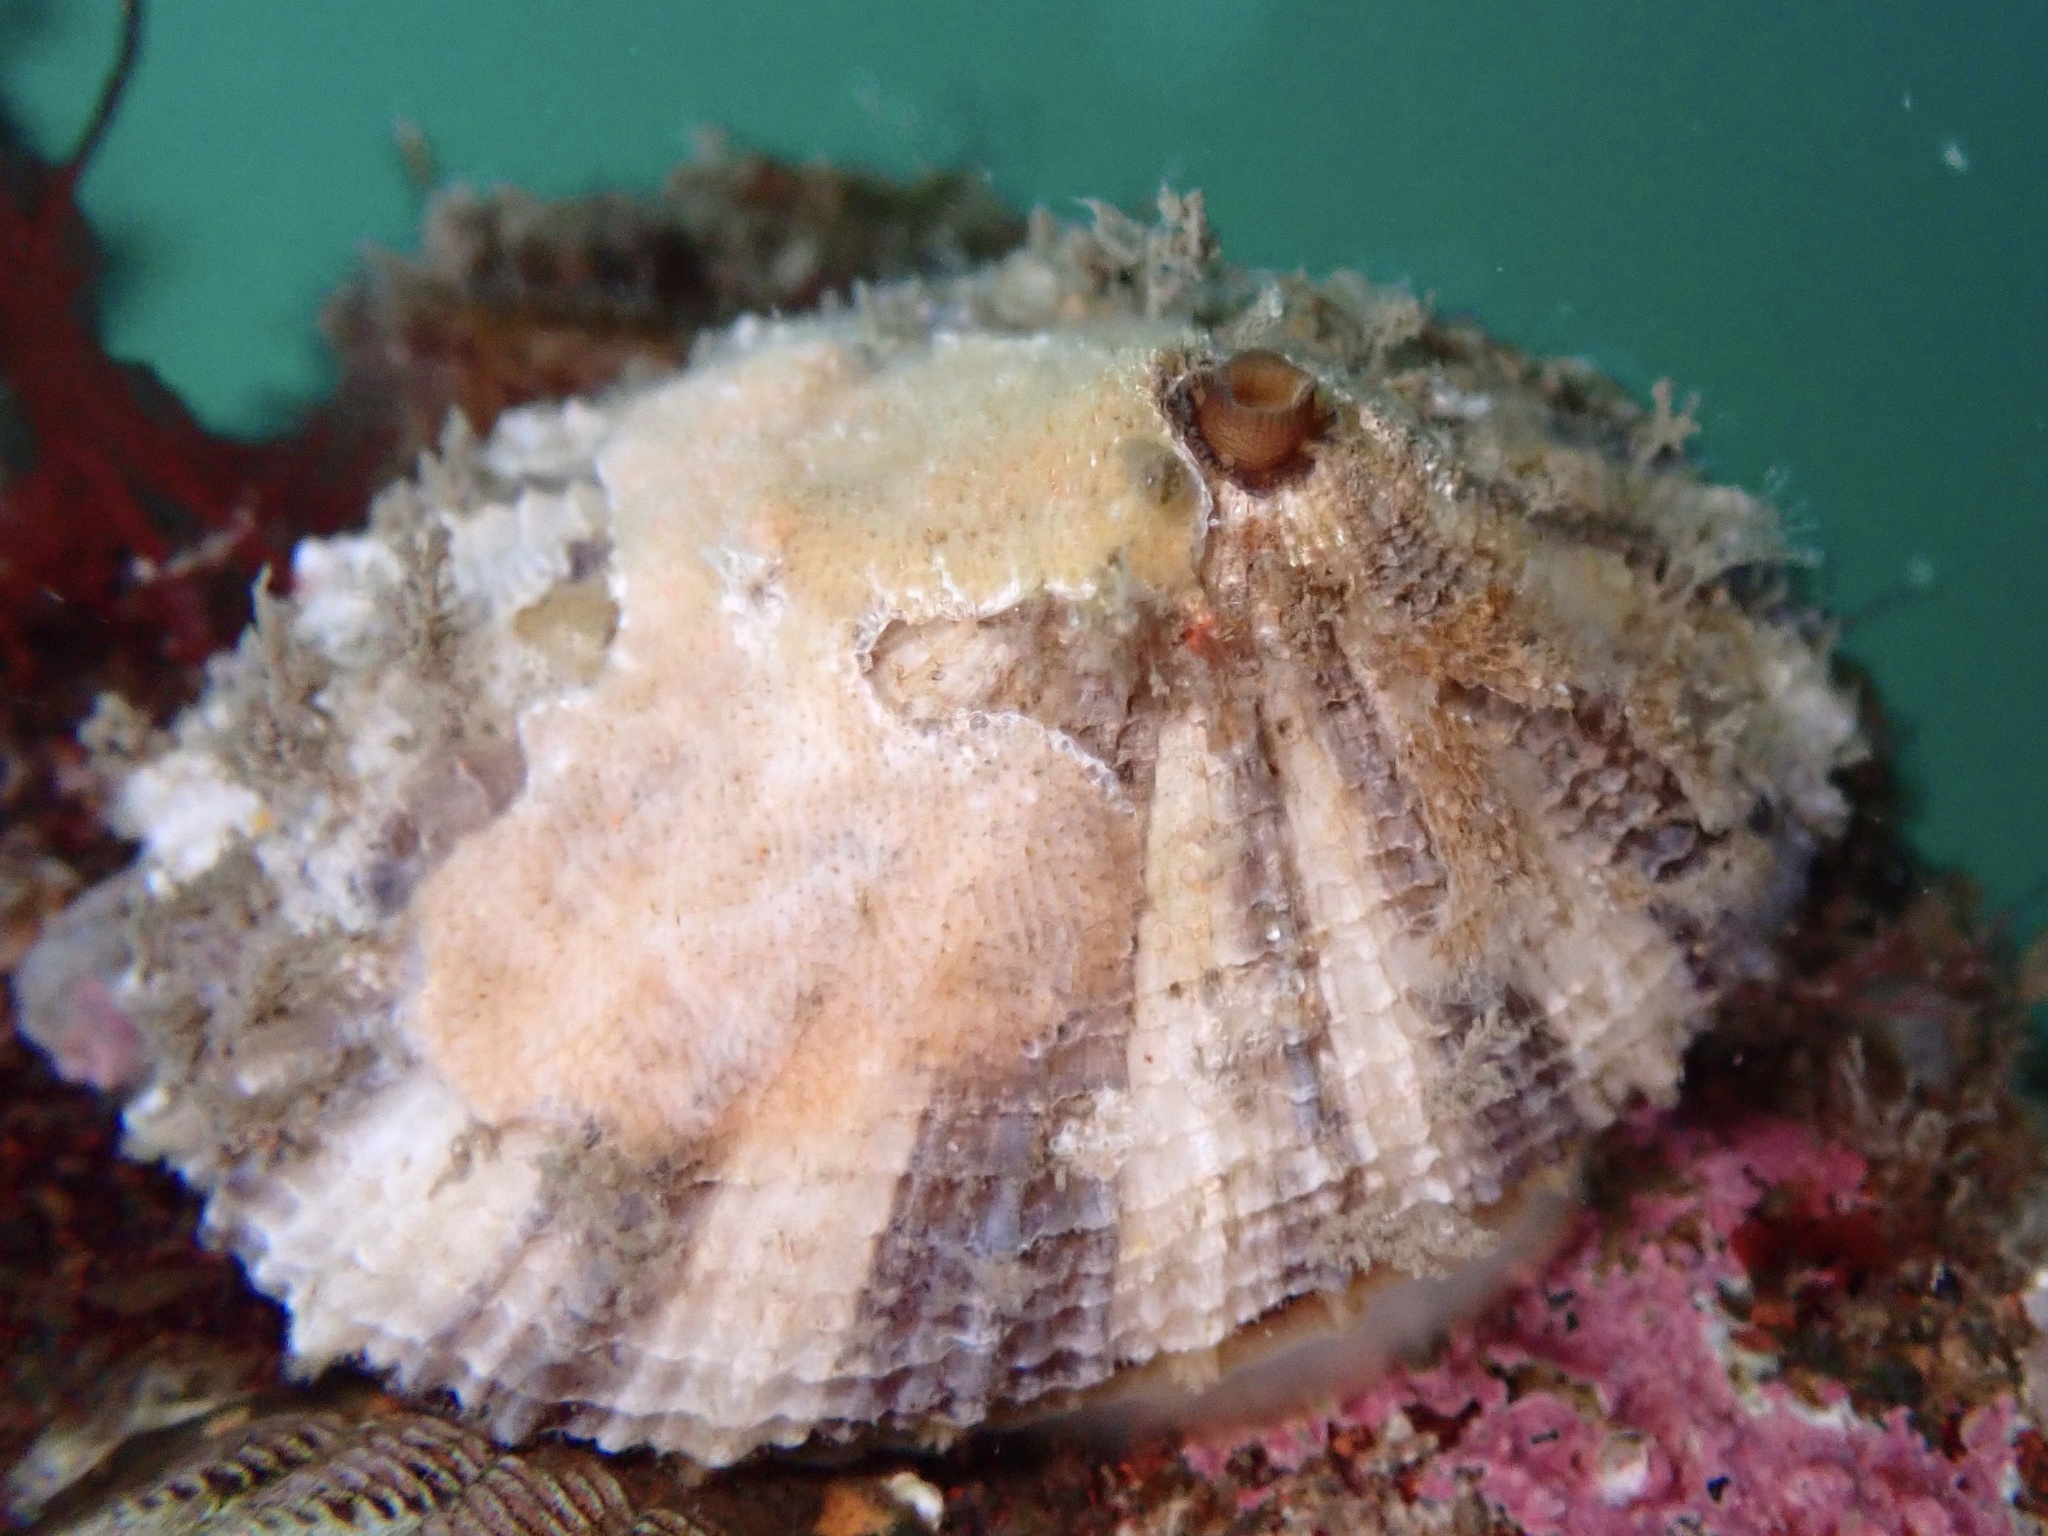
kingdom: Animalia
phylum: Mollusca
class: Gastropoda
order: Lepetellida
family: Fissurellidae
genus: Diodora
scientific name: Diodora aspera
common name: Rough keyhole limpet
